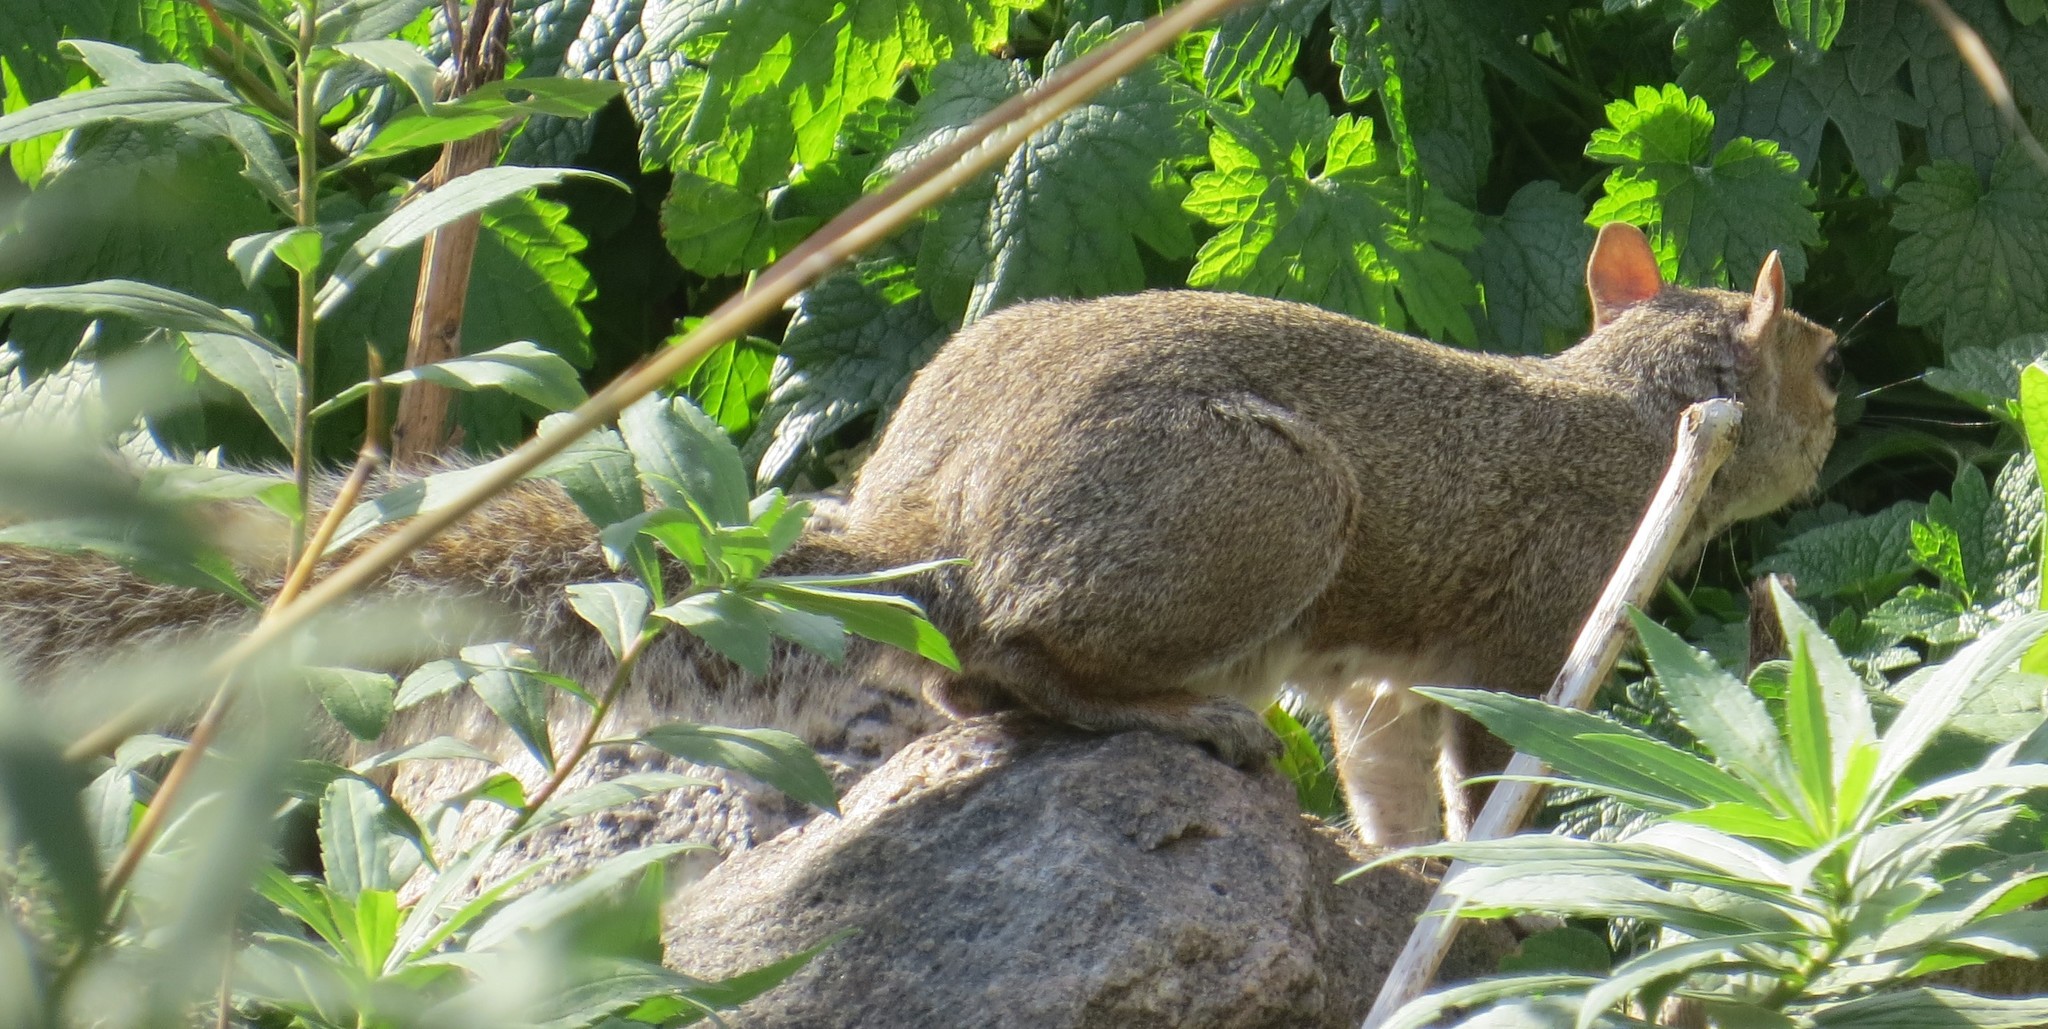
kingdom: Animalia
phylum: Chordata
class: Mammalia
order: Rodentia
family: Sciuridae
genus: Sciurus
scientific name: Sciurus carolinensis
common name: Eastern gray squirrel
